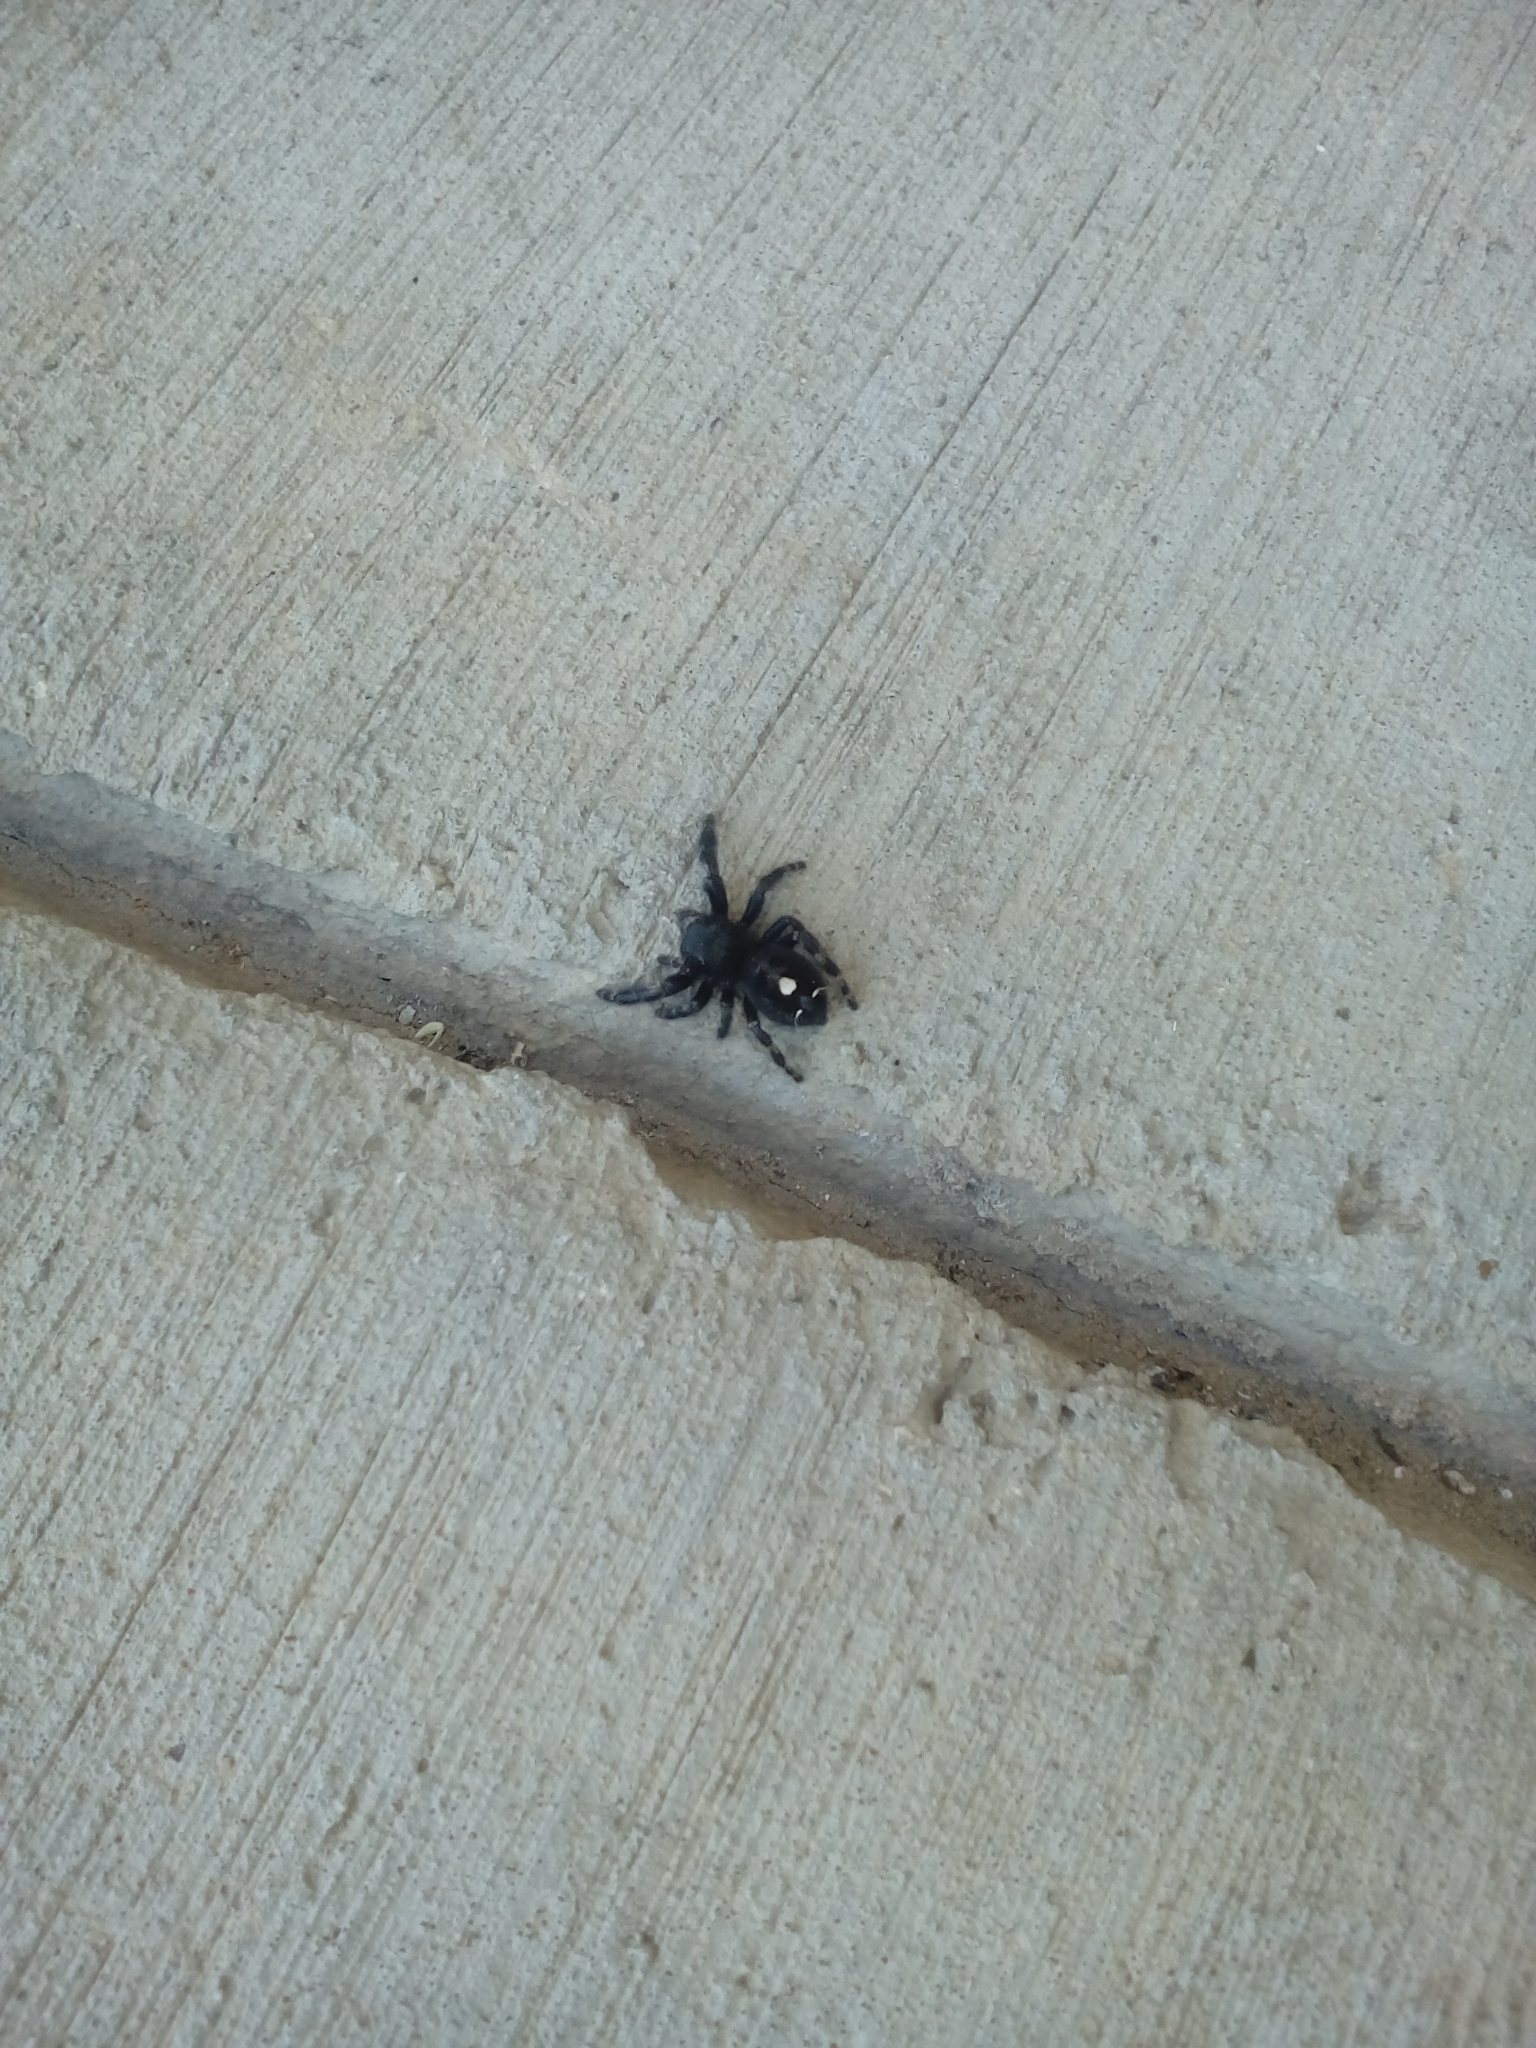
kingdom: Animalia
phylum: Arthropoda
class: Arachnida
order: Araneae
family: Salticidae
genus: Phidippus
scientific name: Phidippus audax
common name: Bold jumper
